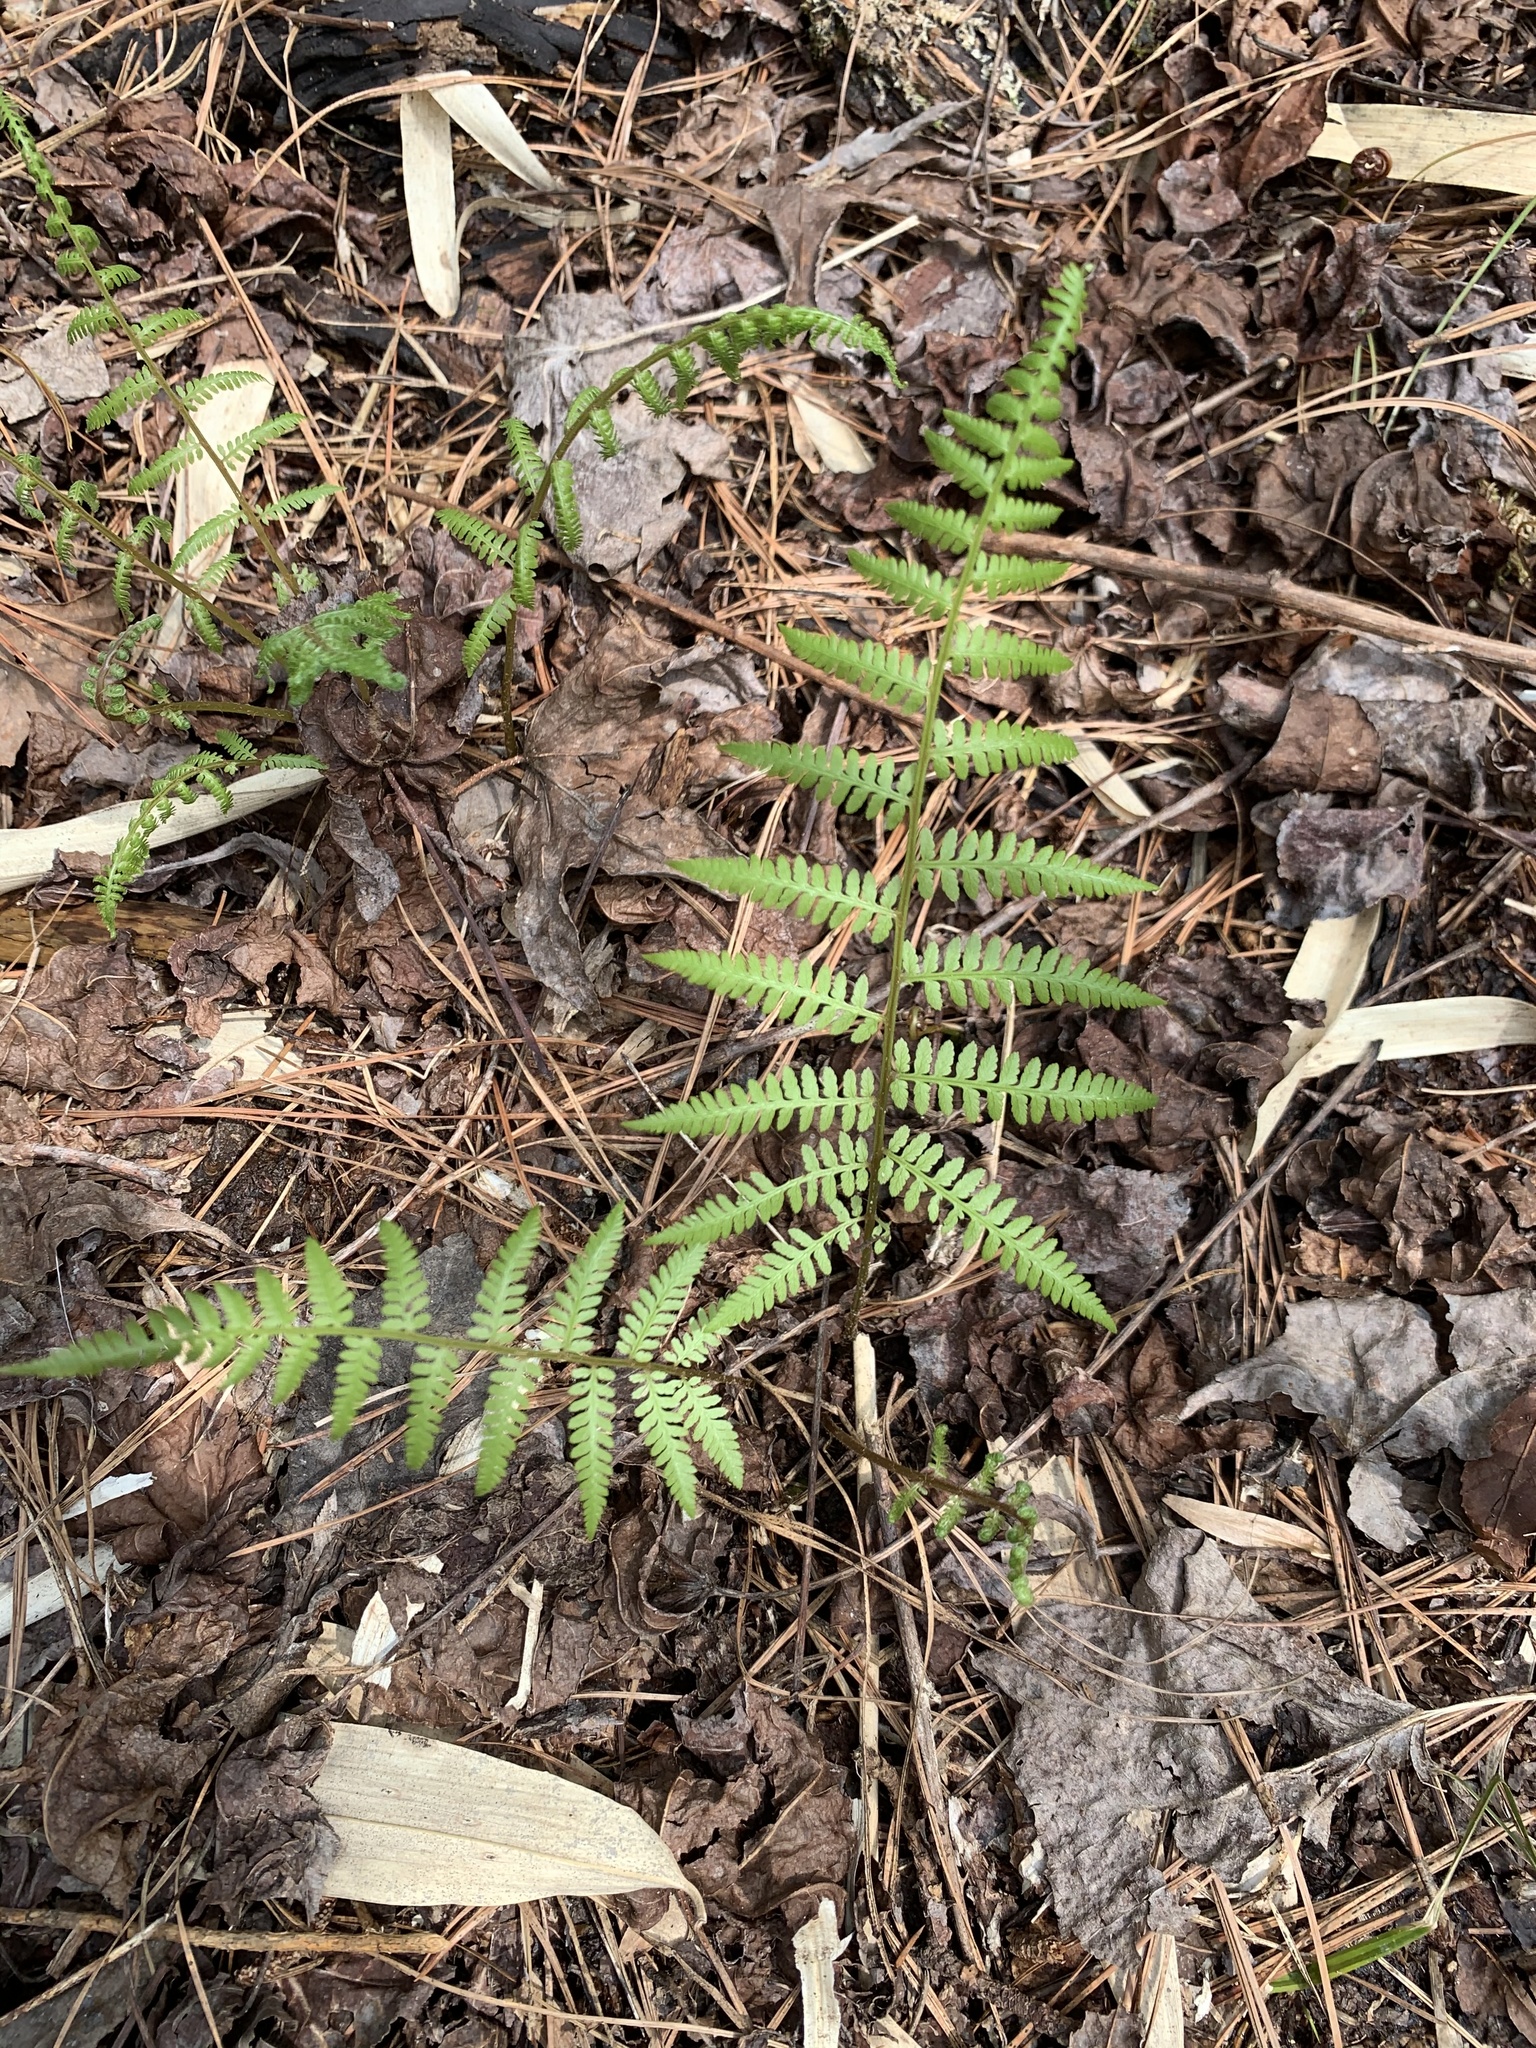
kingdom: Plantae
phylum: Tracheophyta
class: Polypodiopsida
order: Polypodiales
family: Athyriaceae
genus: Athyrium
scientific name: Athyrium asplenioides
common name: Southern lady fern
